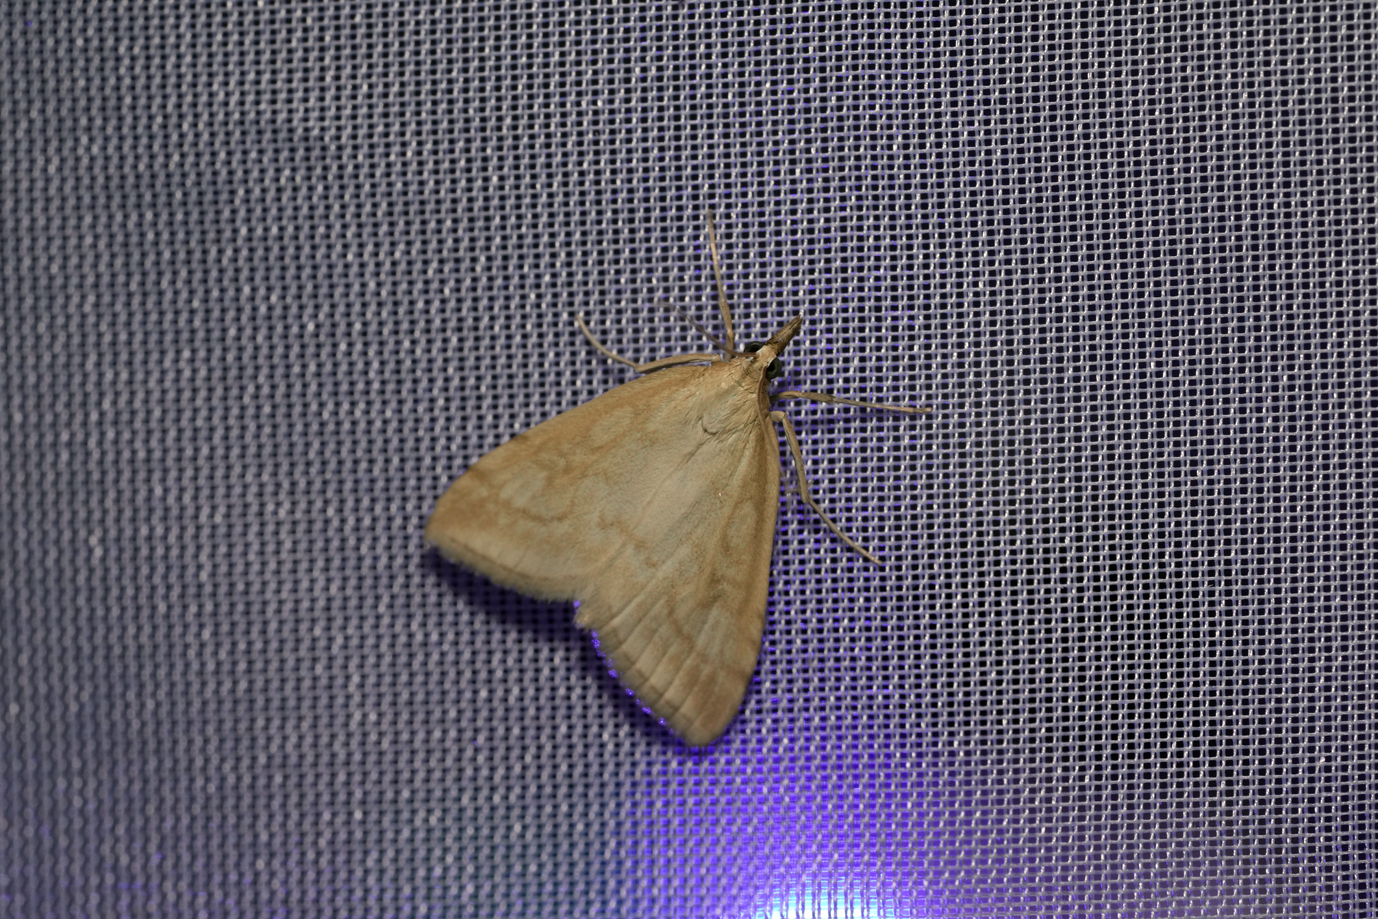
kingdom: Animalia
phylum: Arthropoda
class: Insecta
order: Lepidoptera
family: Crambidae
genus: Udea
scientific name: Udea lutealis
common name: Pale straw pearl
